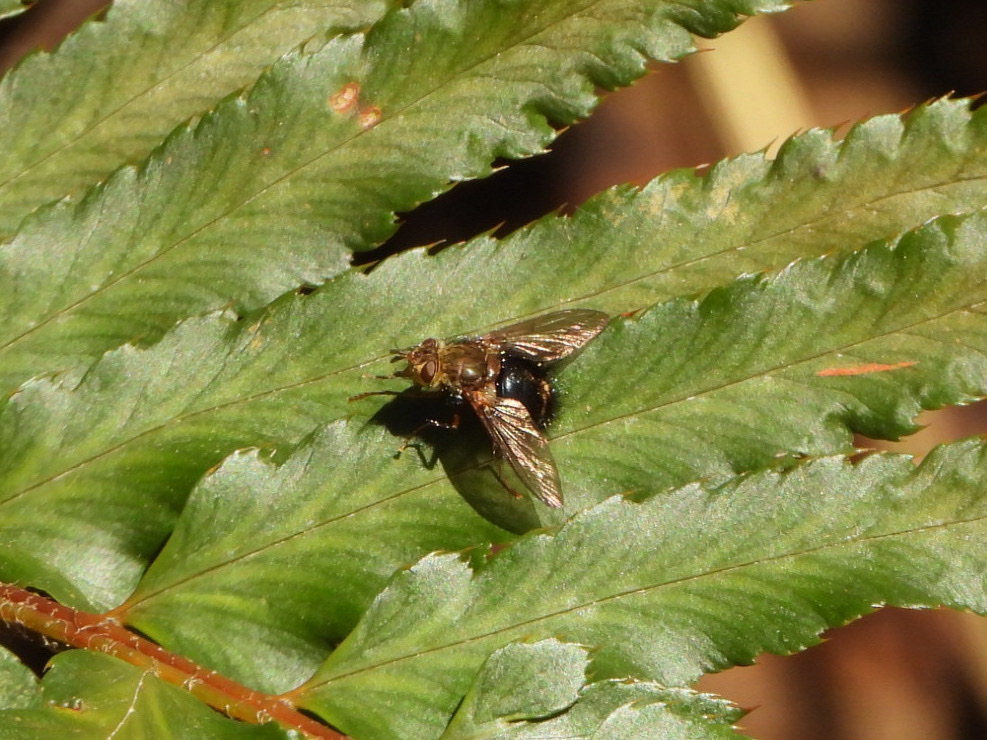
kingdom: Animalia
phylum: Arthropoda
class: Insecta
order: Diptera
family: Tachinidae
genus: Epalpus
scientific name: Epalpus signifer
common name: Early tachinid fly
